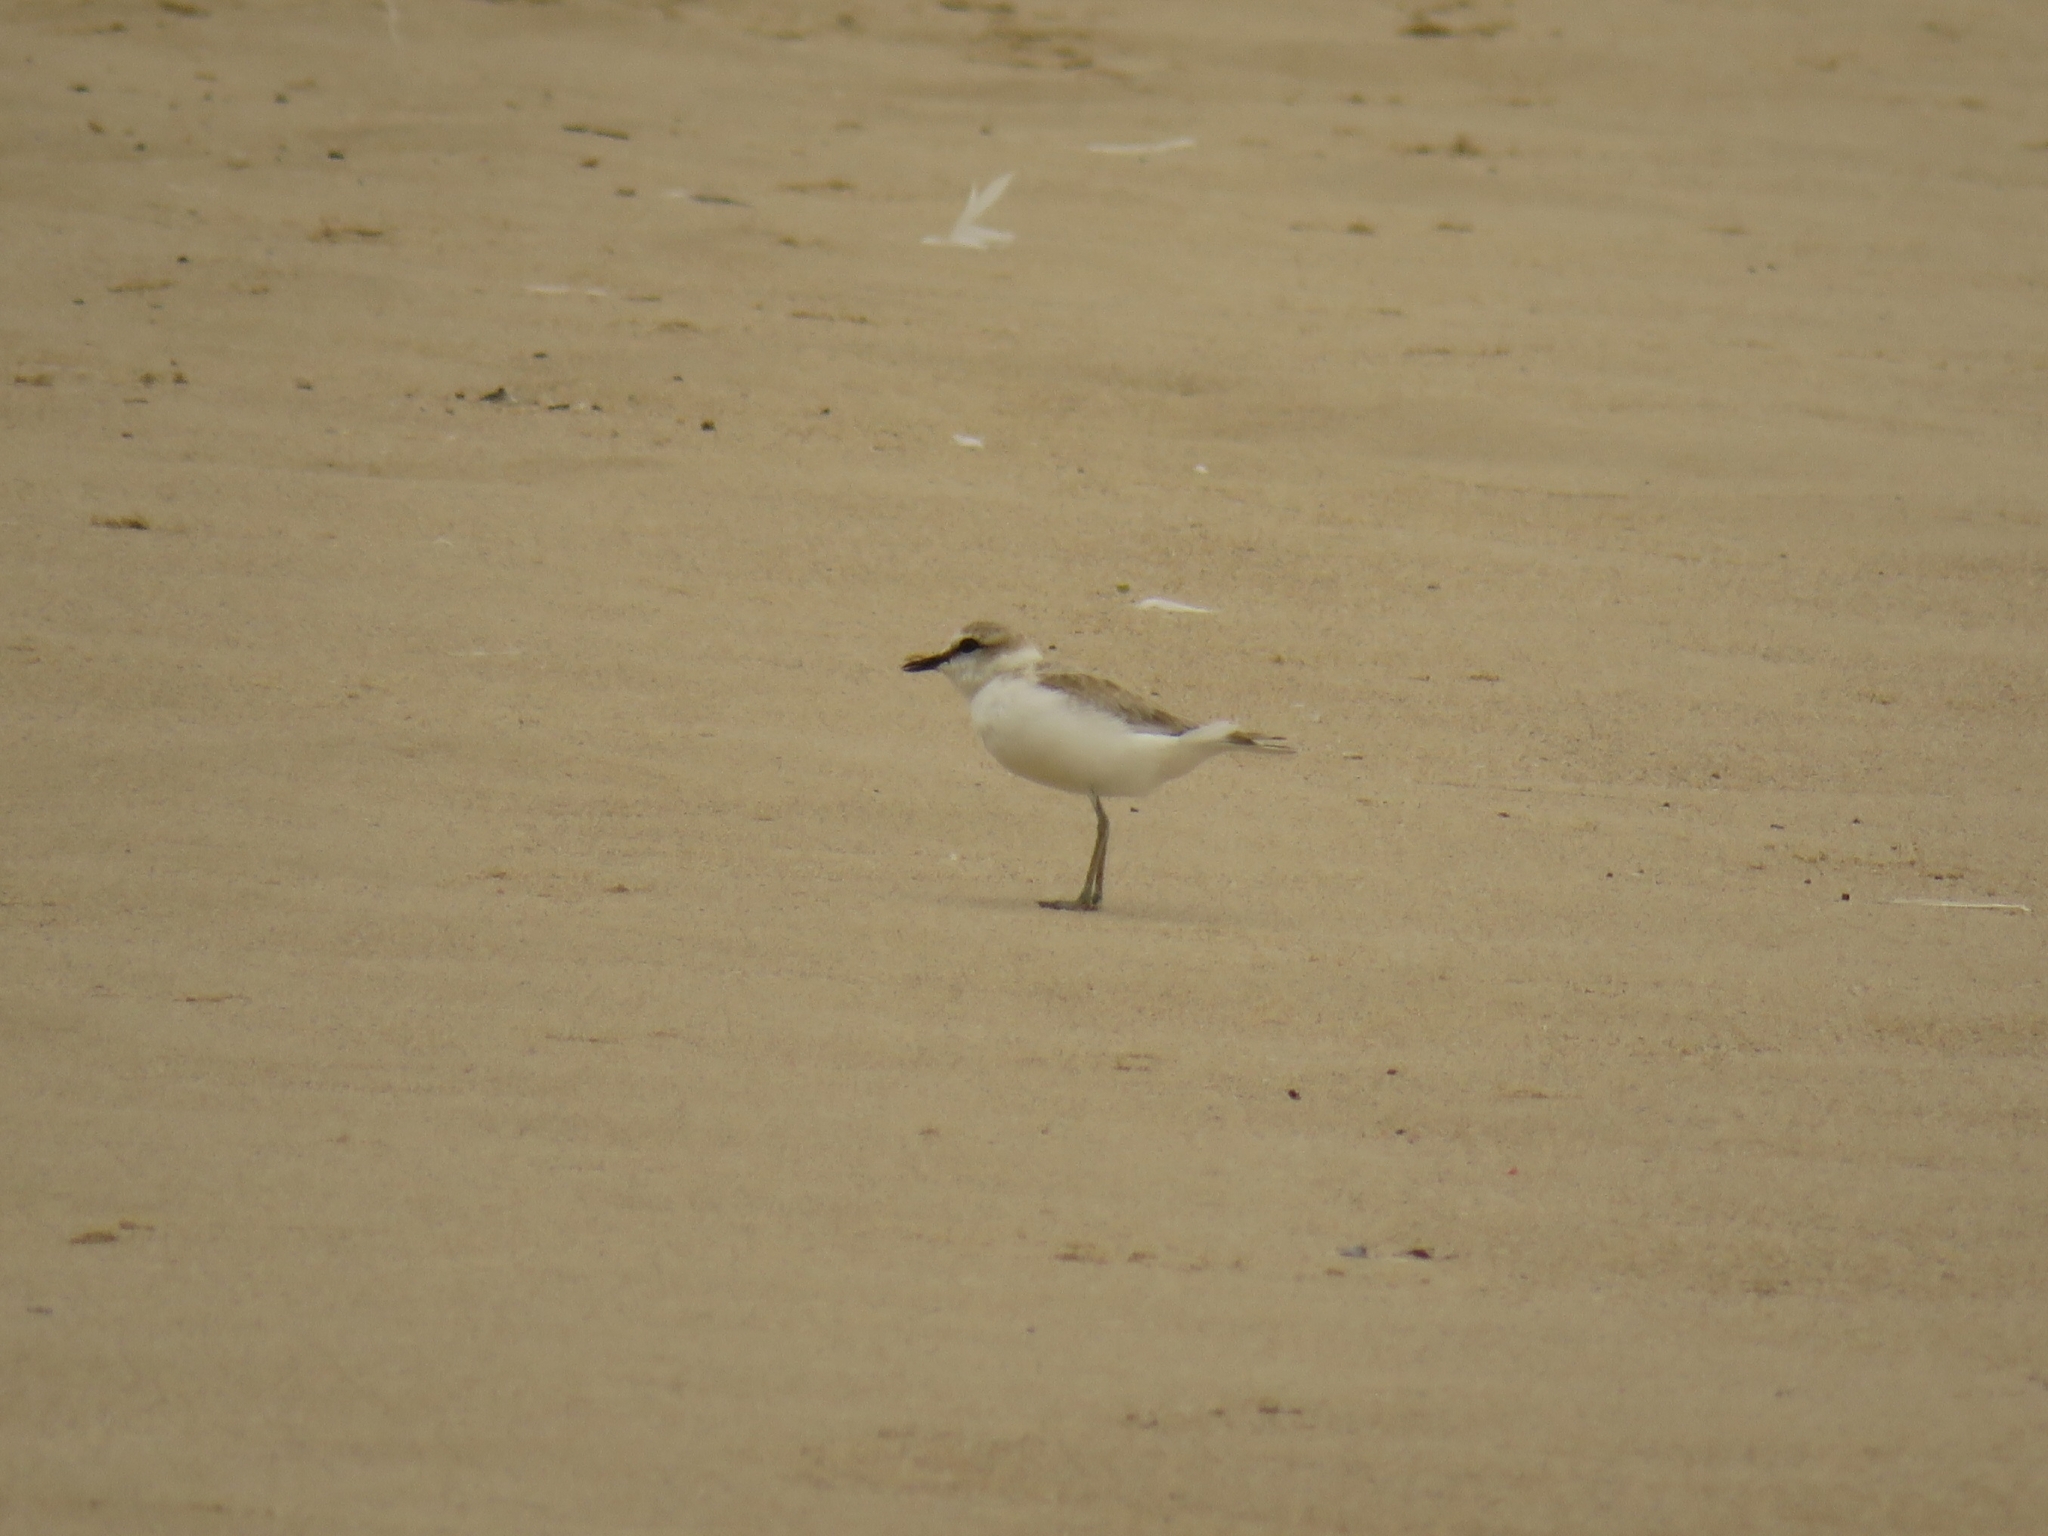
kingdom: Animalia
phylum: Chordata
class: Aves
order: Charadriiformes
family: Charadriidae
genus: Anarhynchus
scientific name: Anarhynchus
